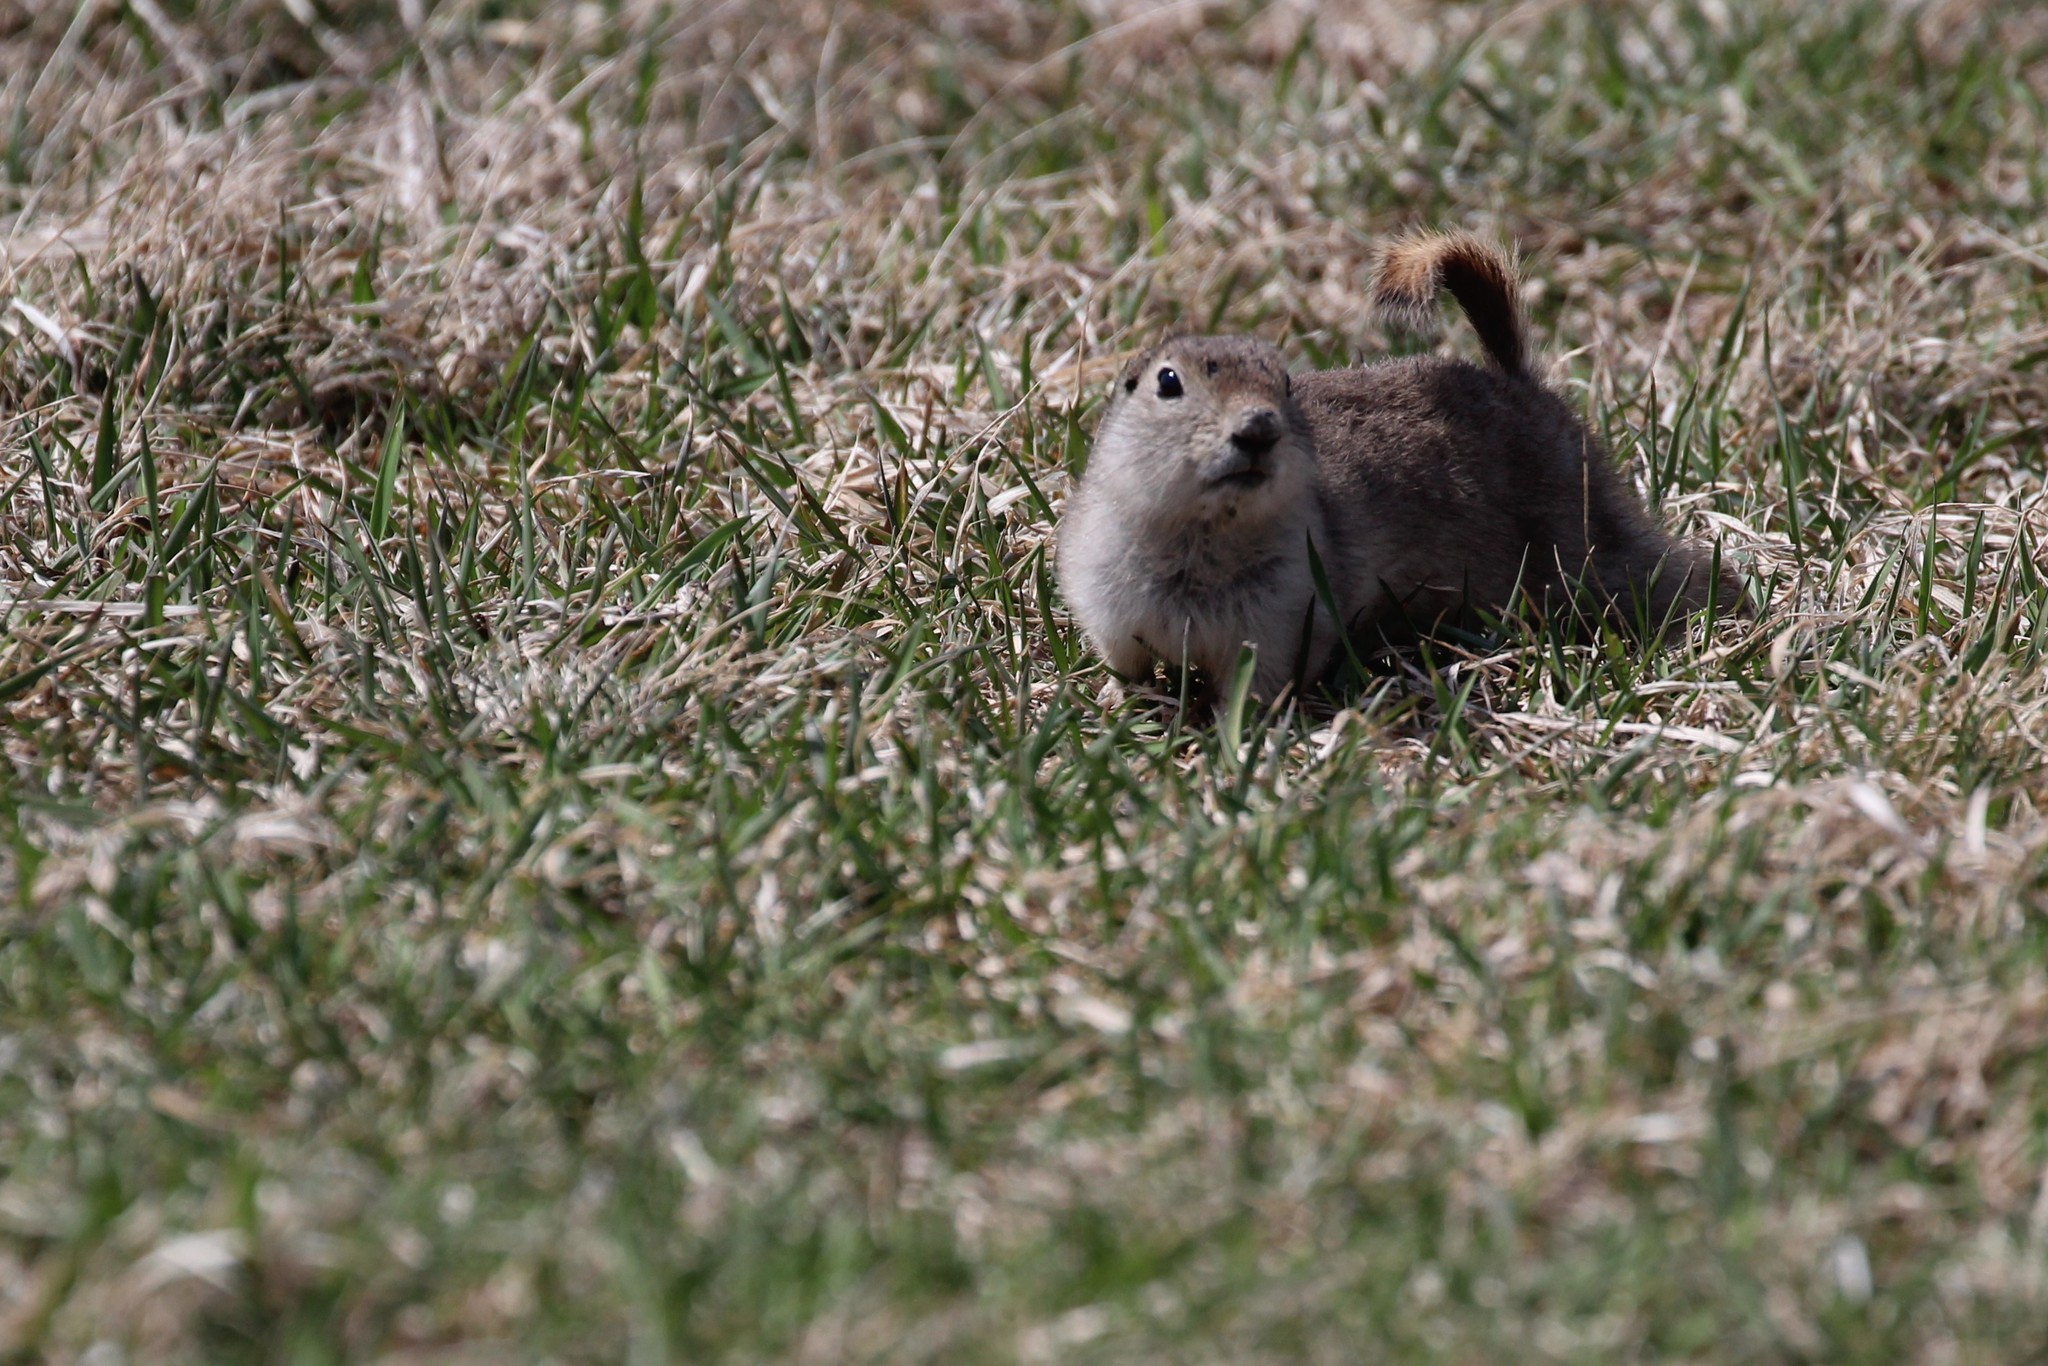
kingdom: Animalia
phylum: Chordata
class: Mammalia
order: Rodentia
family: Sciuridae
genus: Urocitellus
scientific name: Urocitellus richardsonii
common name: Richardson's ground squirrel
